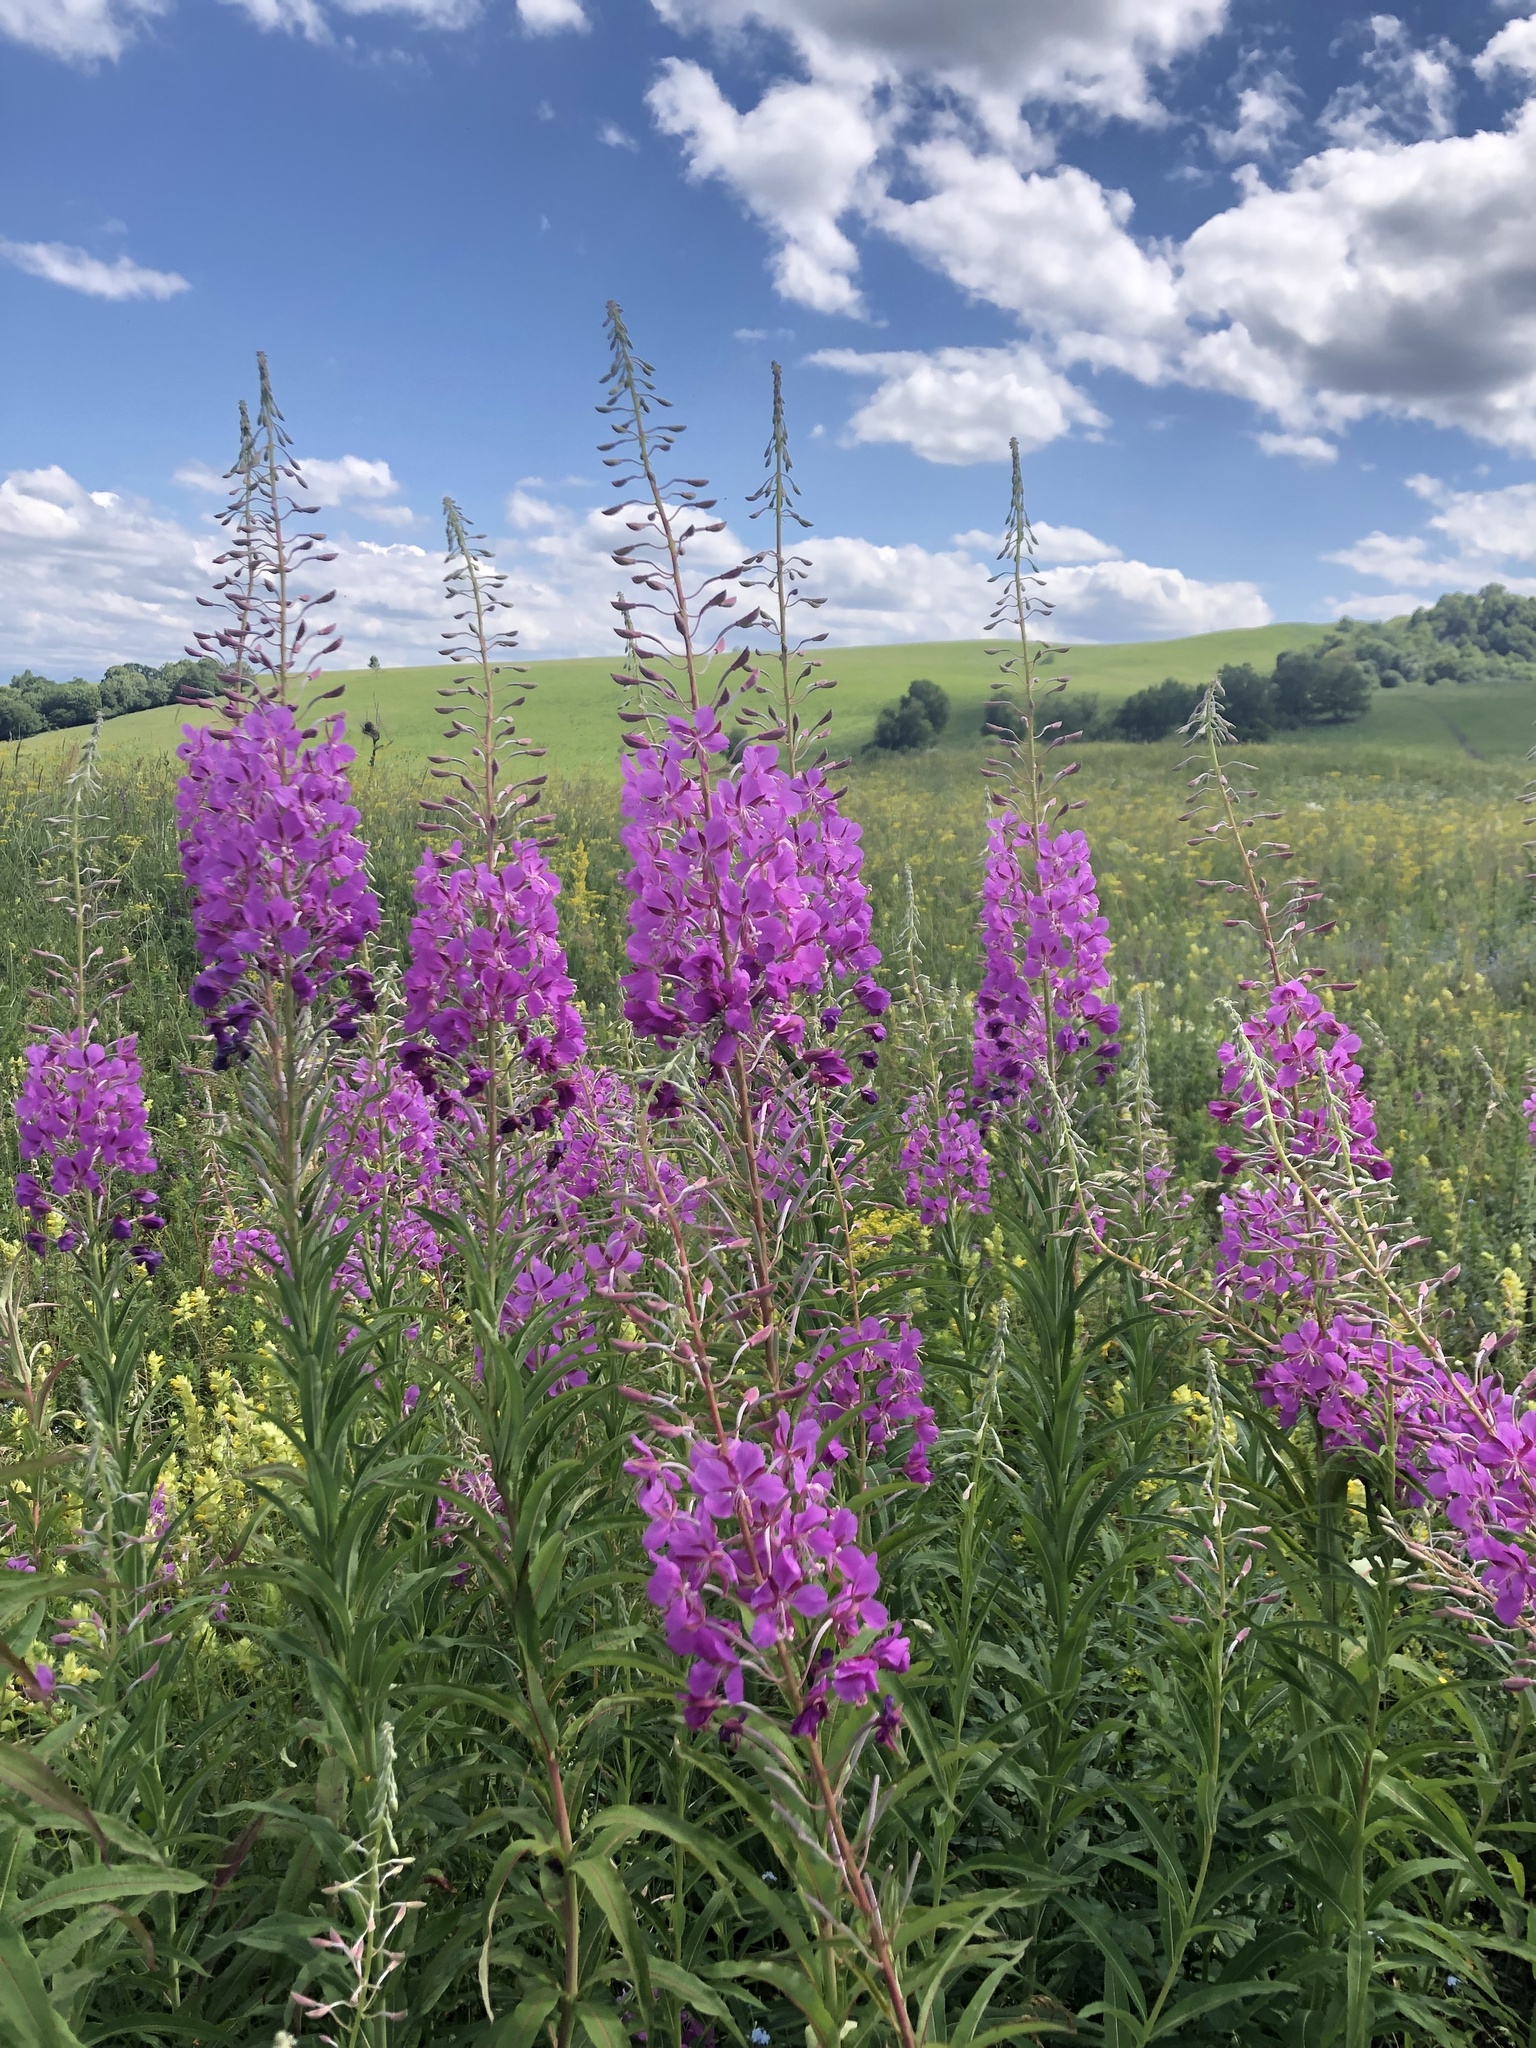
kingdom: Plantae
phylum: Tracheophyta
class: Magnoliopsida
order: Myrtales
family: Onagraceae
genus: Chamaenerion
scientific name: Chamaenerion angustifolium
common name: Fireweed
